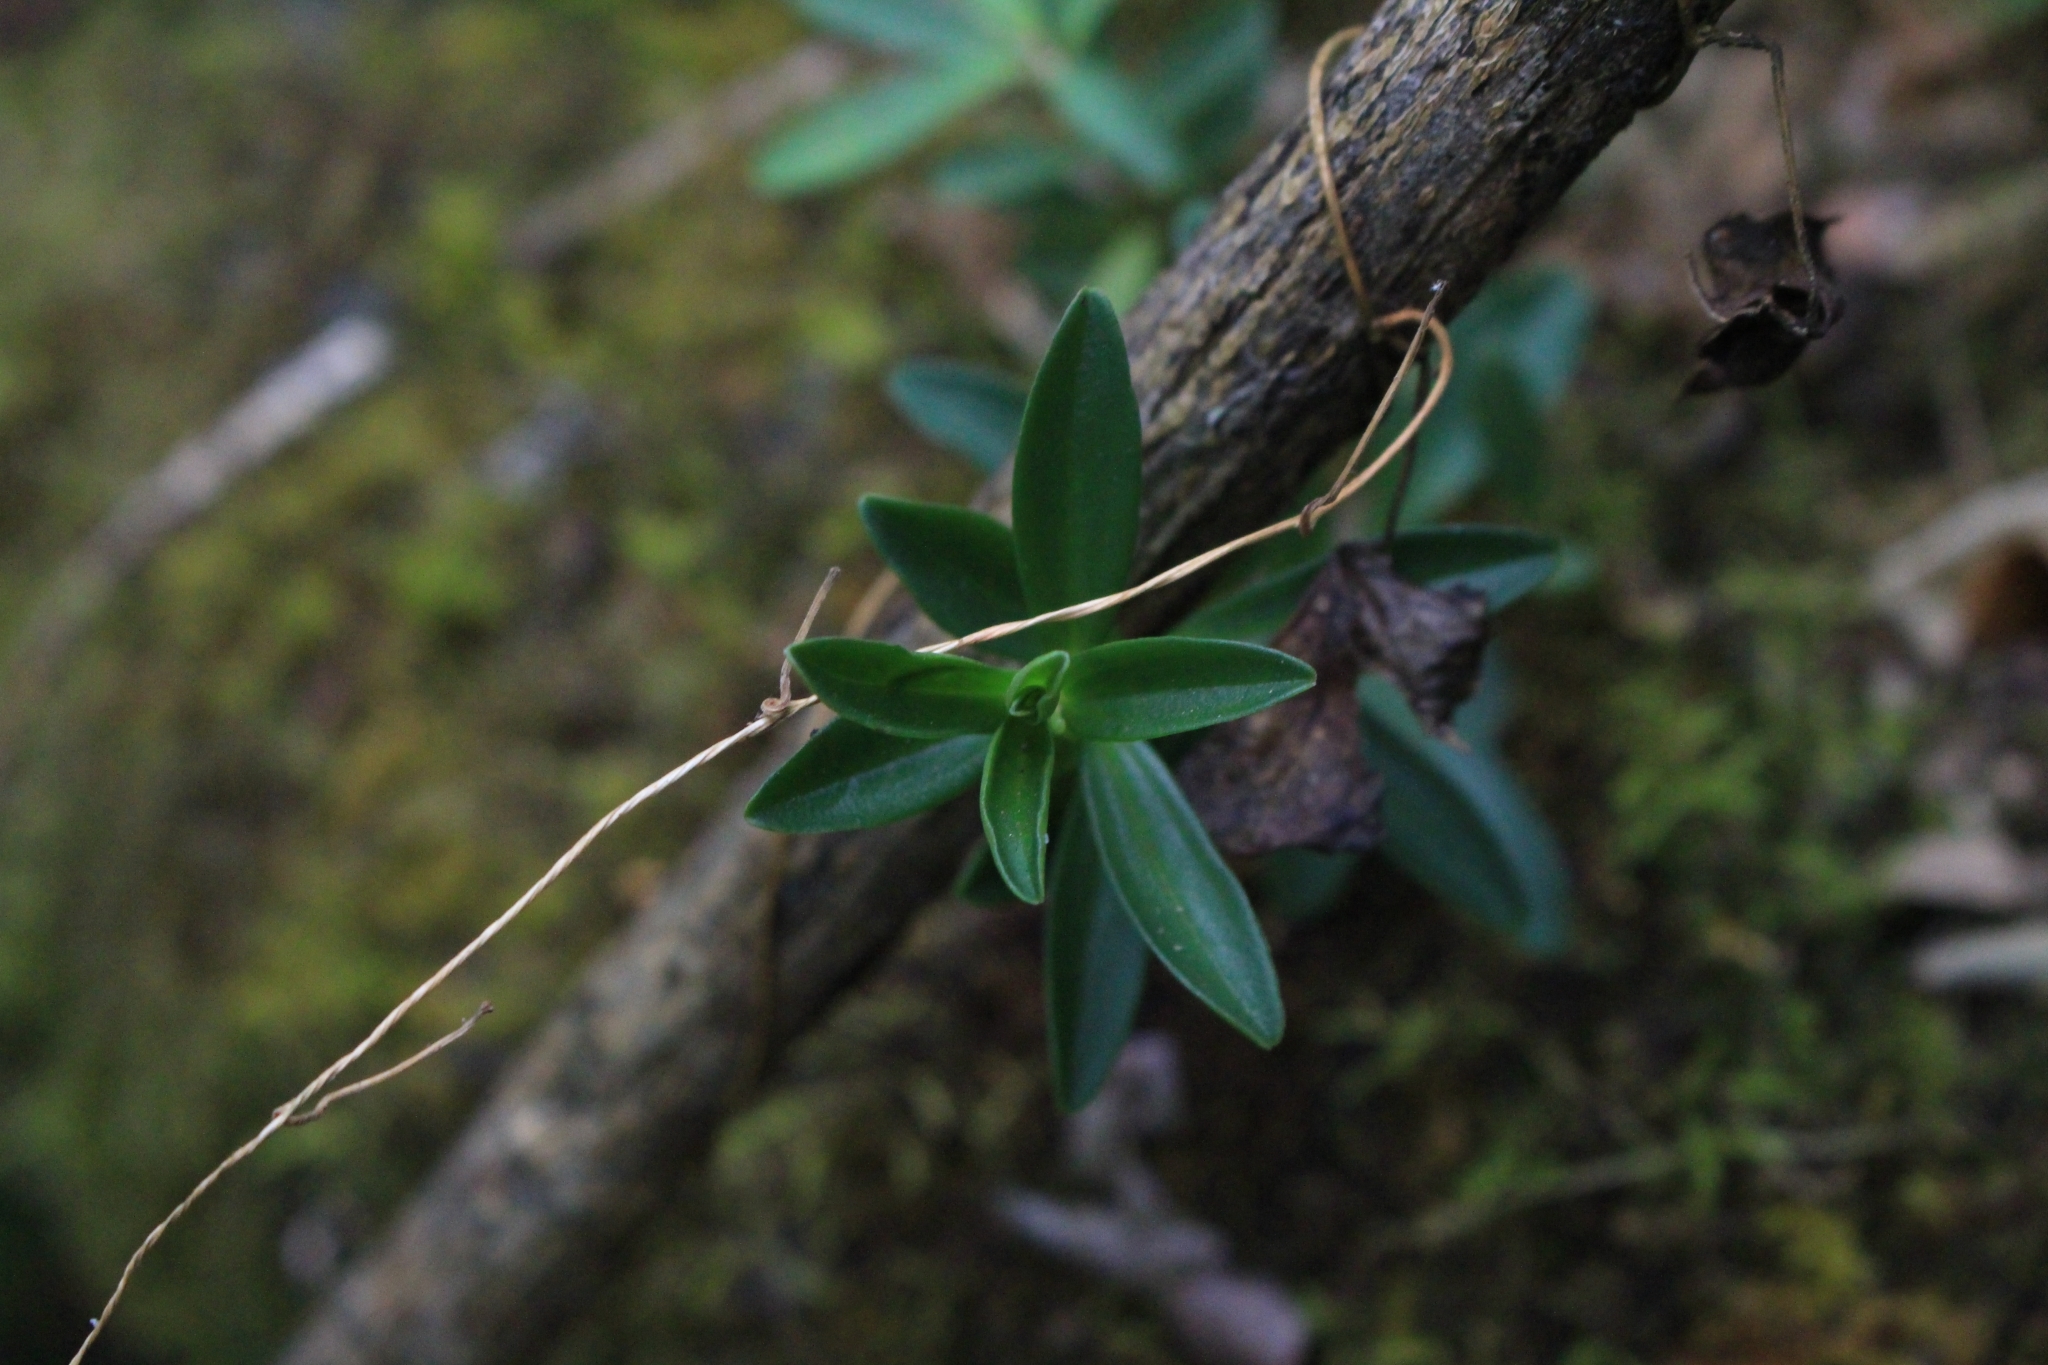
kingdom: Plantae
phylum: Tracheophyta
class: Magnoliopsida
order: Piperales
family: Piperaceae
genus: Peperomia
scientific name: Peperomia tetraphylla
